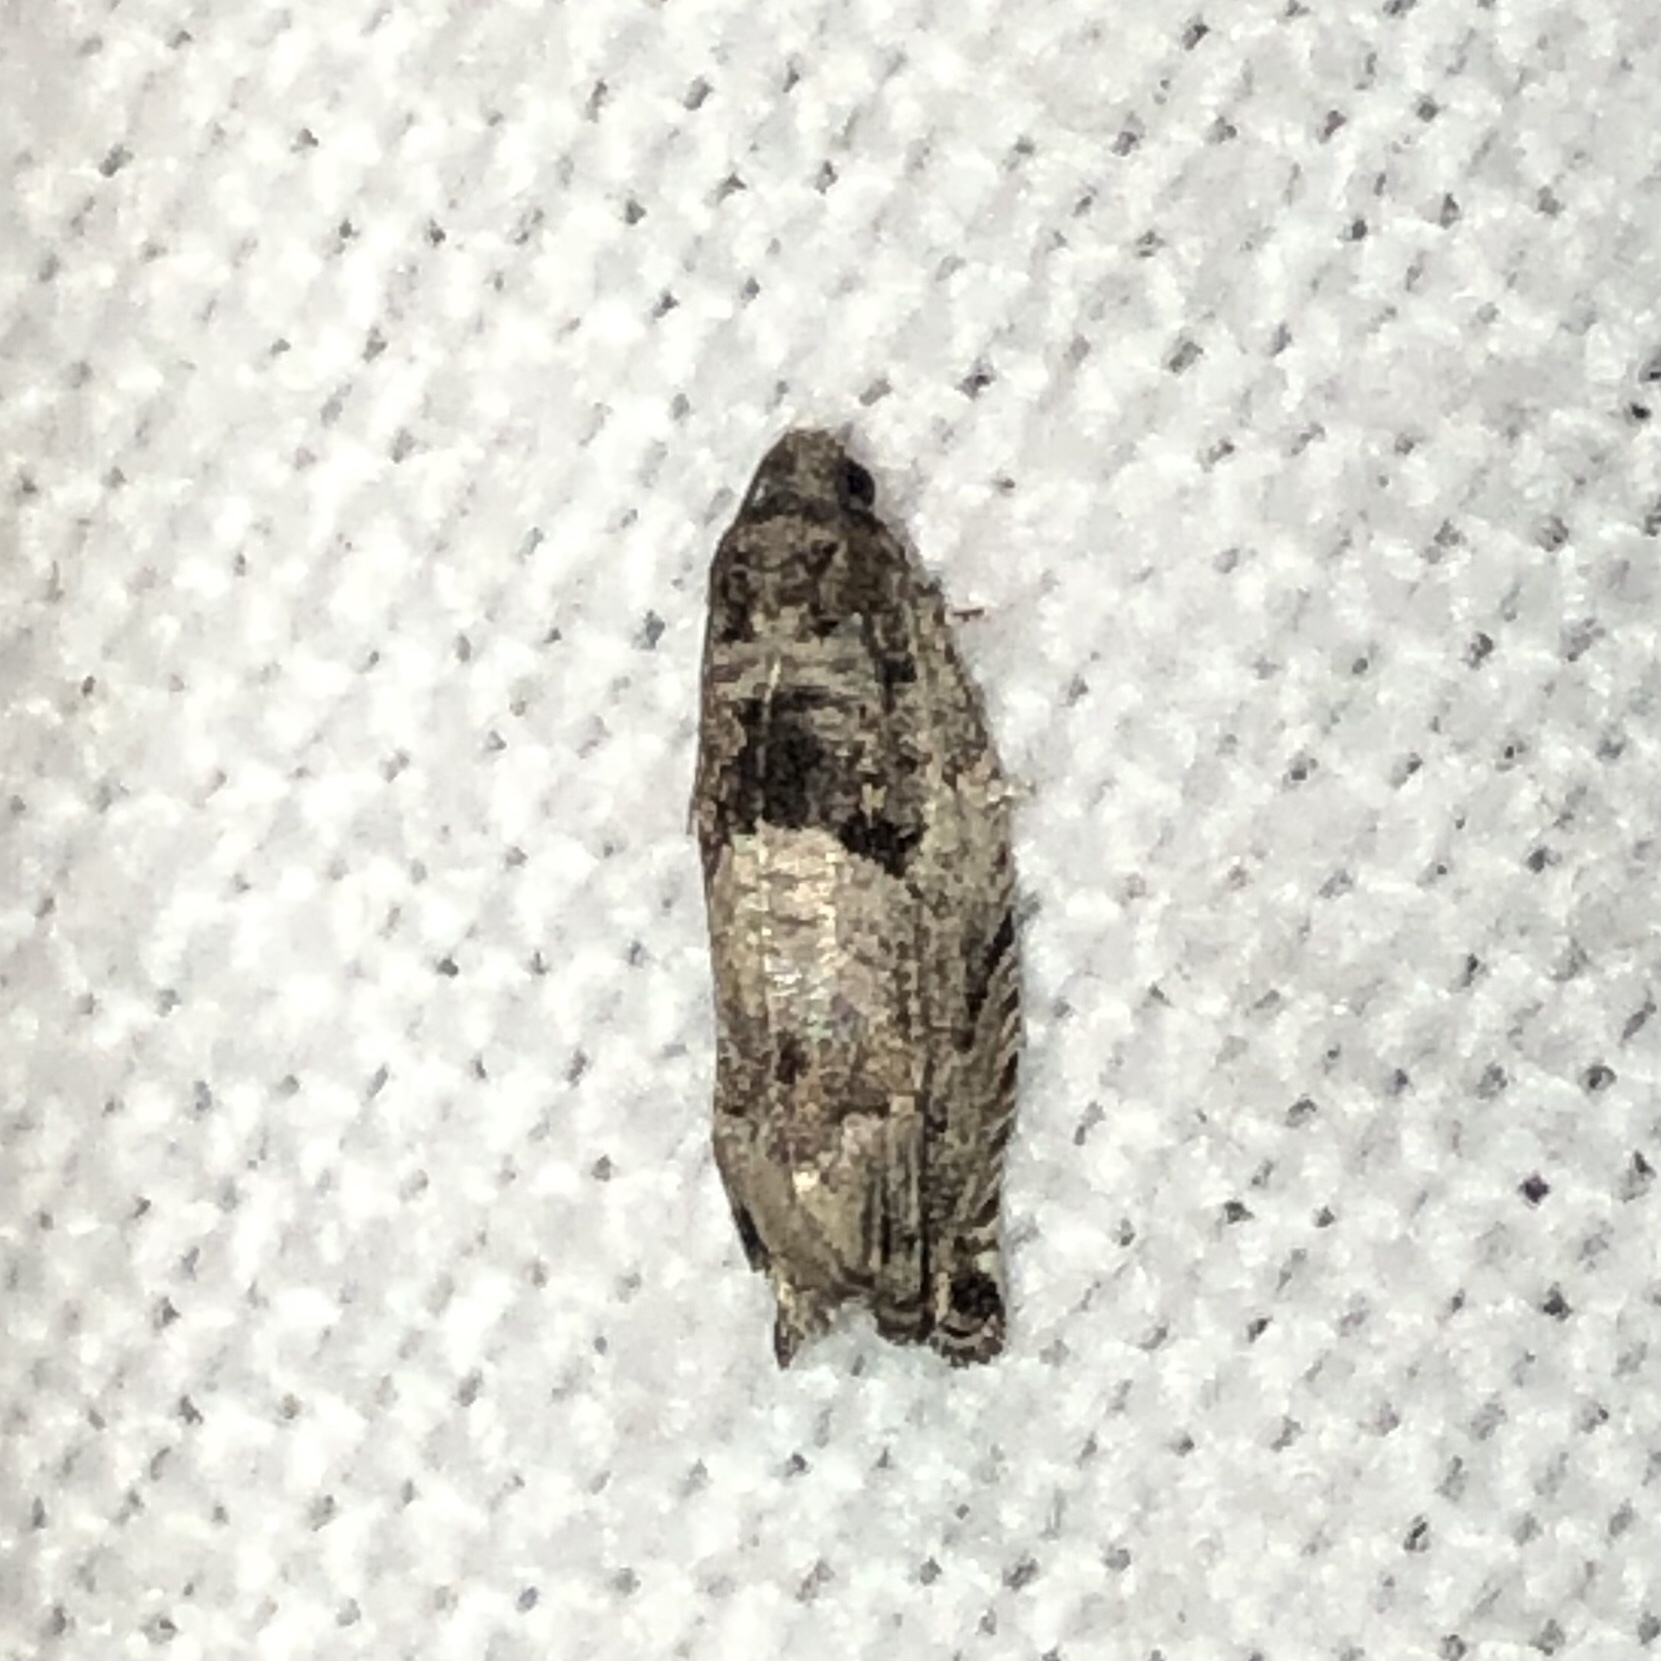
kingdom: Animalia
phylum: Arthropoda
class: Insecta
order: Lepidoptera
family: Tortricidae
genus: Gypsonoma
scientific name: Gypsonoma haimbachiana
